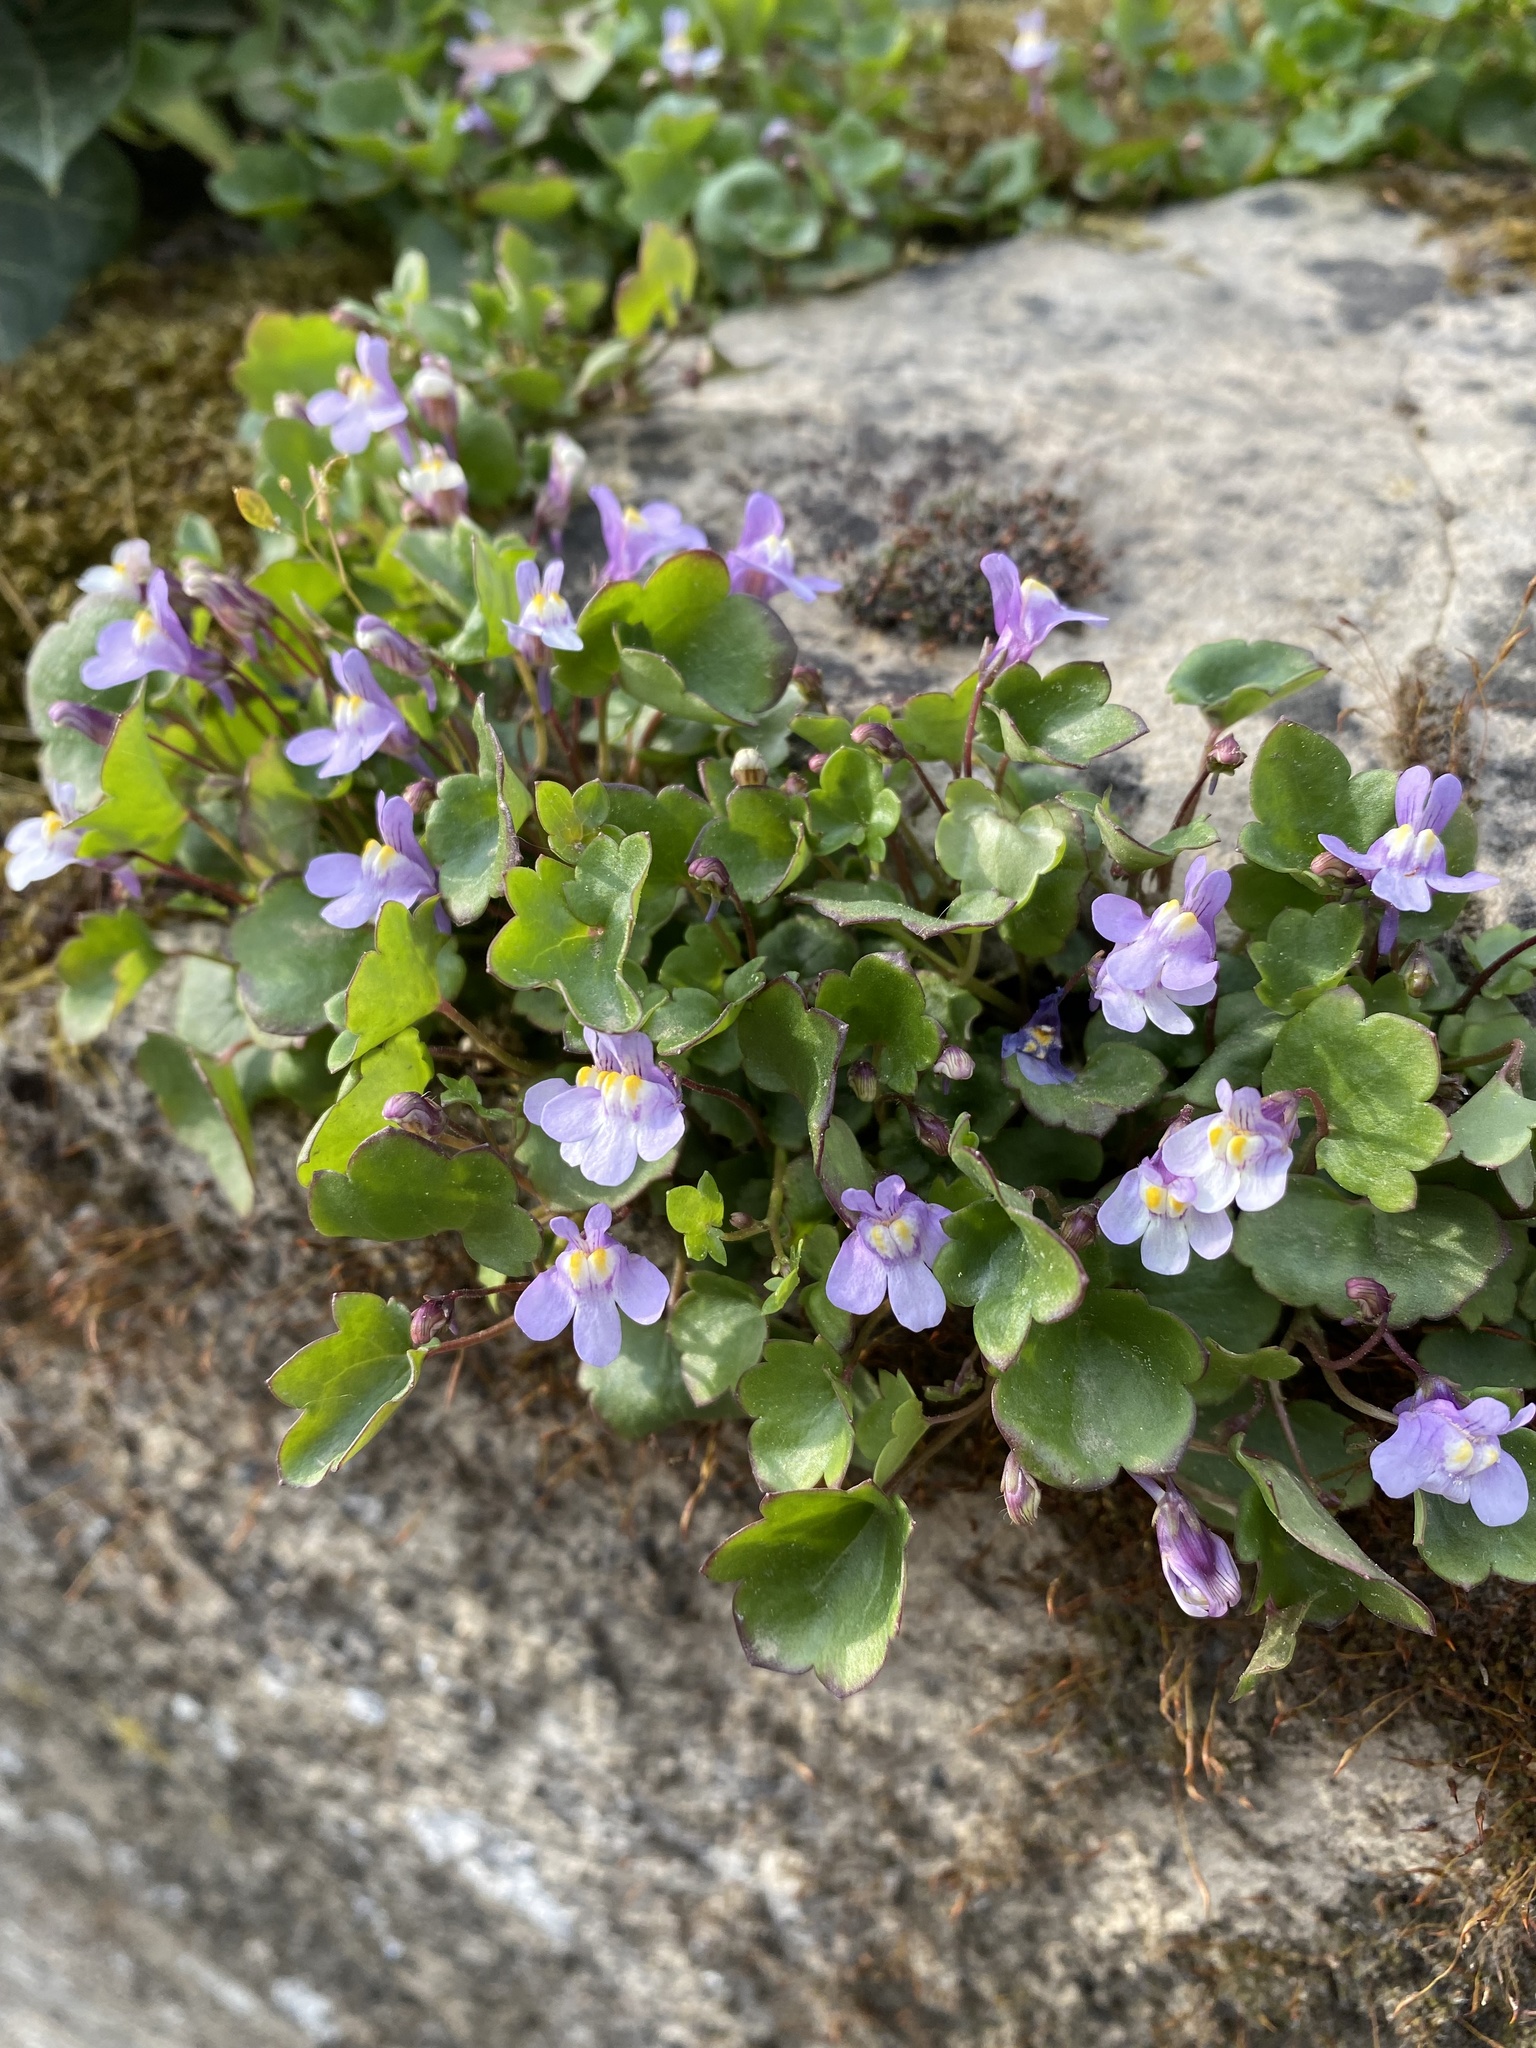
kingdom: Plantae
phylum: Tracheophyta
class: Magnoliopsida
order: Lamiales
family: Plantaginaceae
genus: Cymbalaria
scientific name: Cymbalaria muralis
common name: Ivy-leaved toadflax
